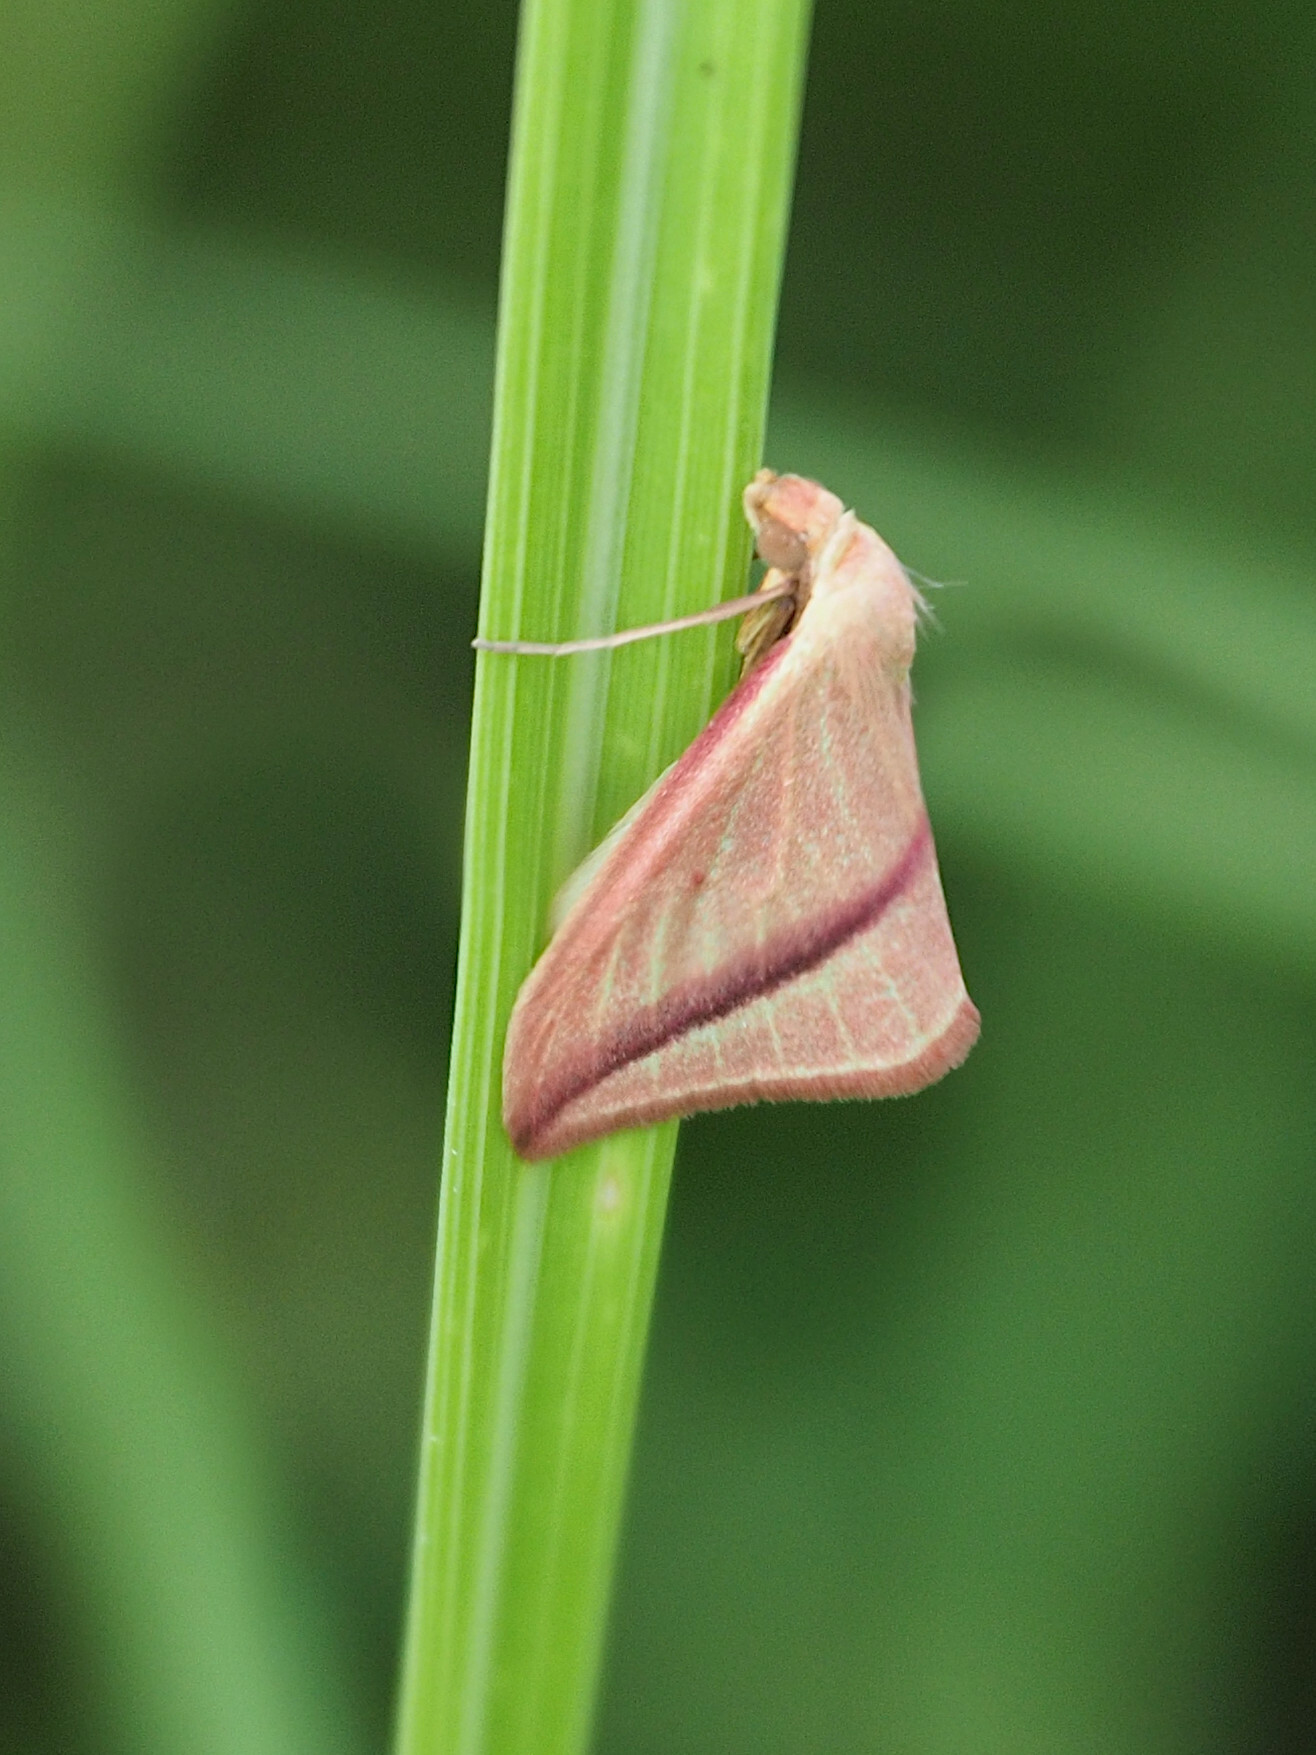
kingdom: Animalia
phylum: Arthropoda
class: Insecta
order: Lepidoptera
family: Geometridae
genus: Rhodometra
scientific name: Rhodometra sacraria
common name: Vestal
